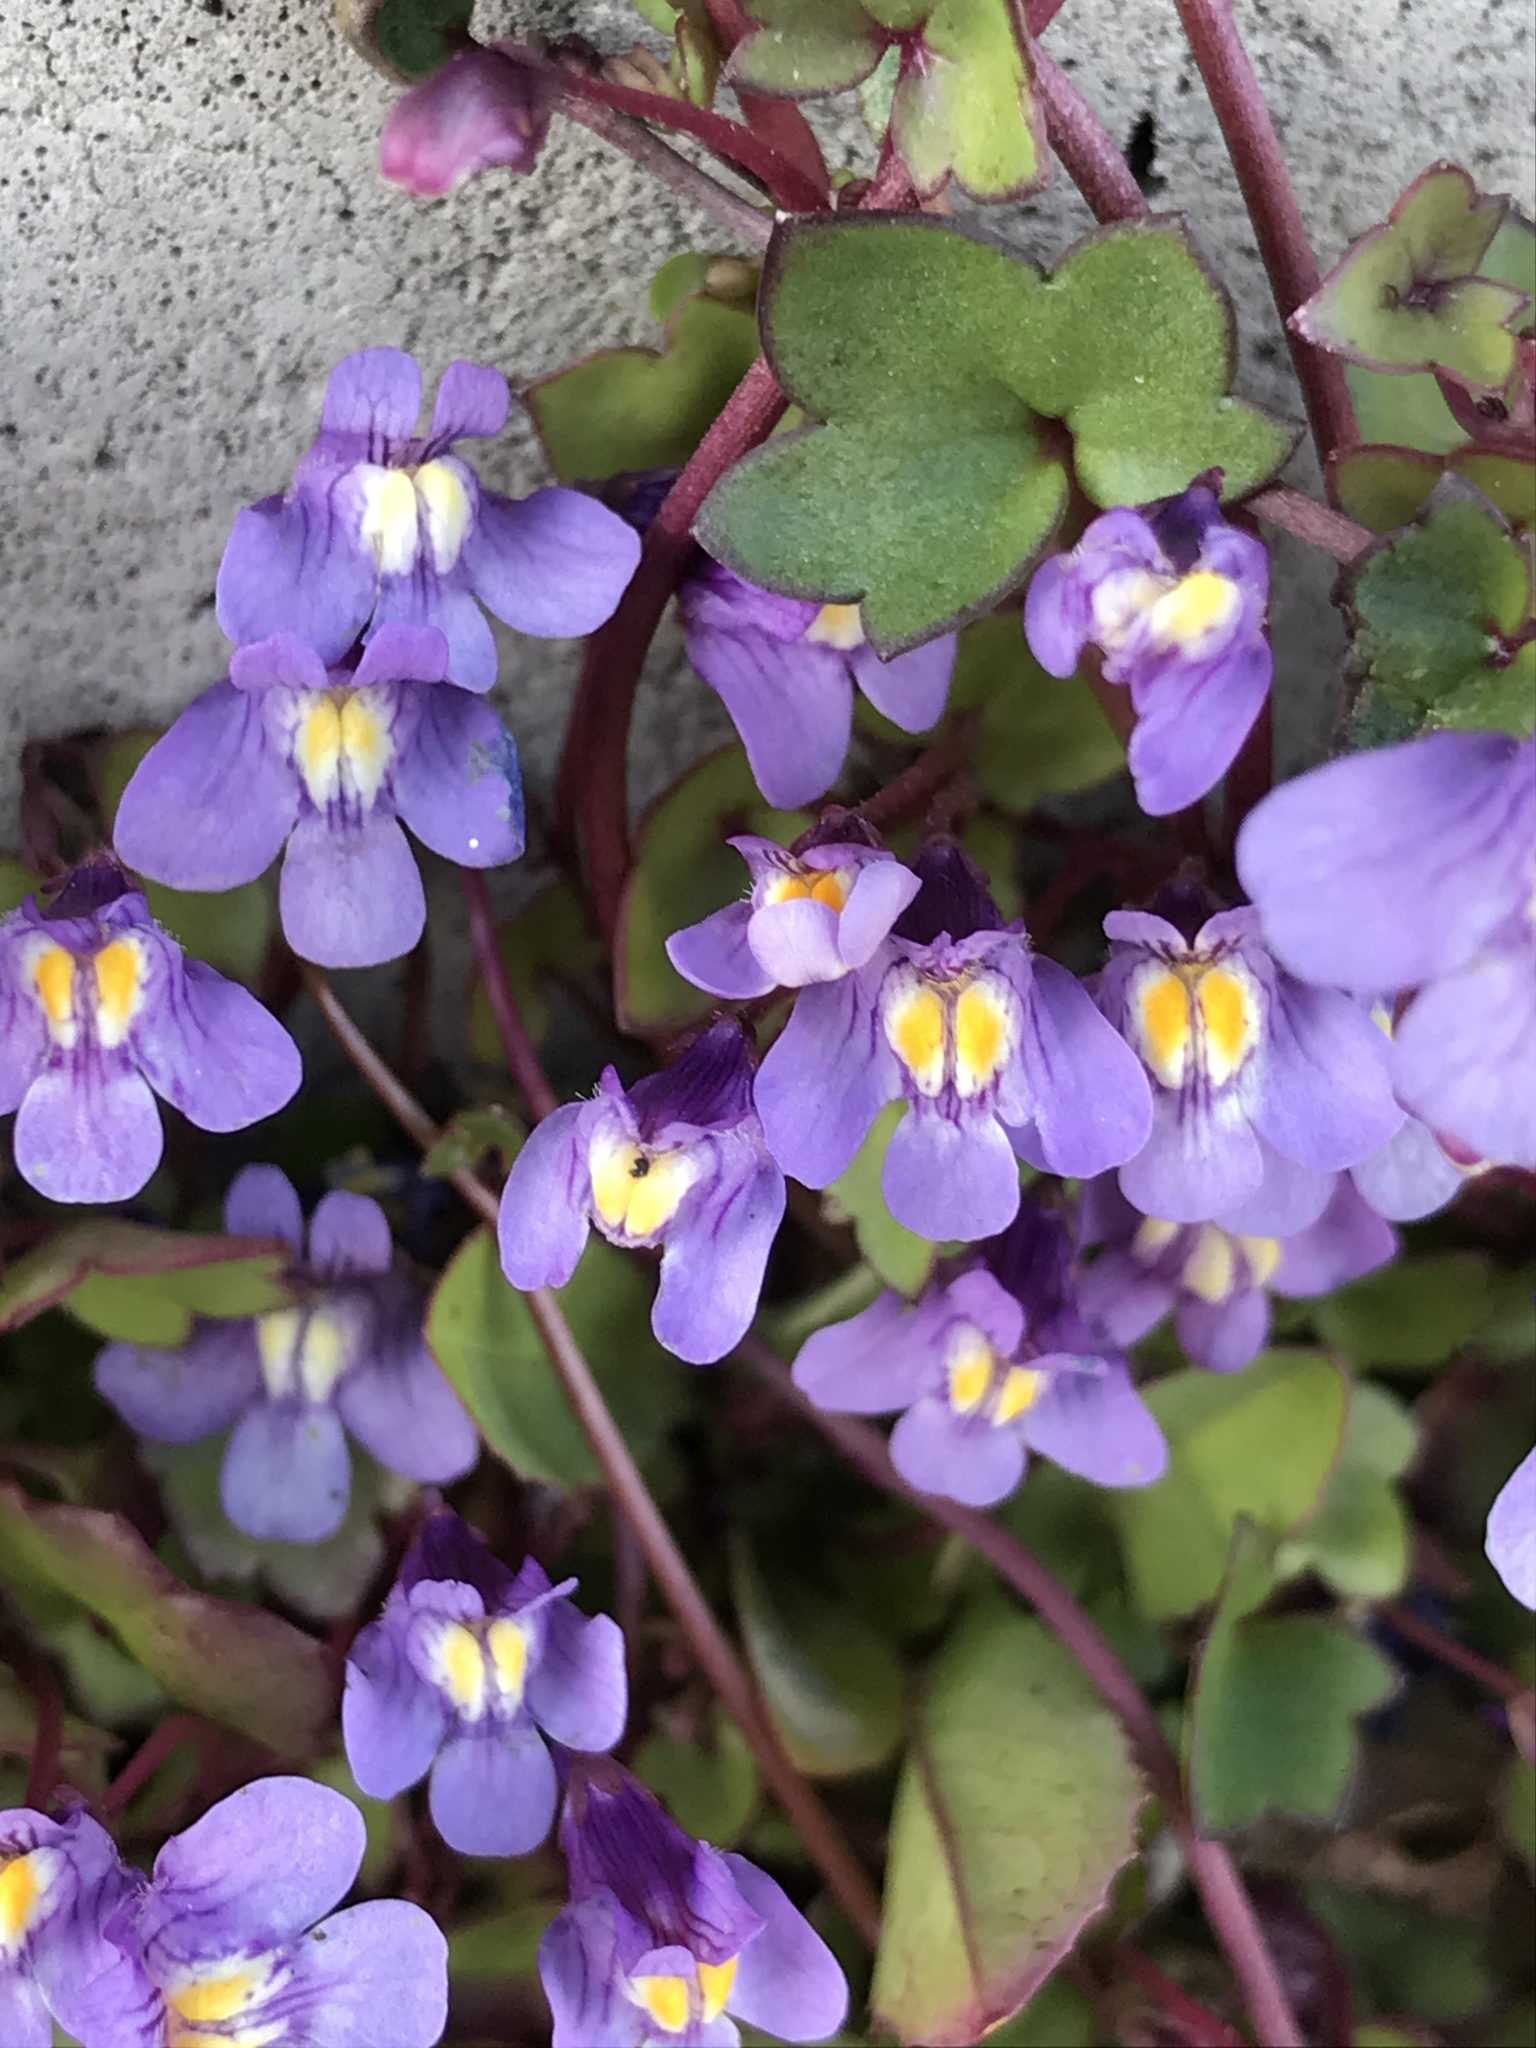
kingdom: Plantae
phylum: Tracheophyta
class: Magnoliopsida
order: Lamiales
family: Plantaginaceae
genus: Cymbalaria
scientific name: Cymbalaria muralis
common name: Ivy-leaved toadflax
